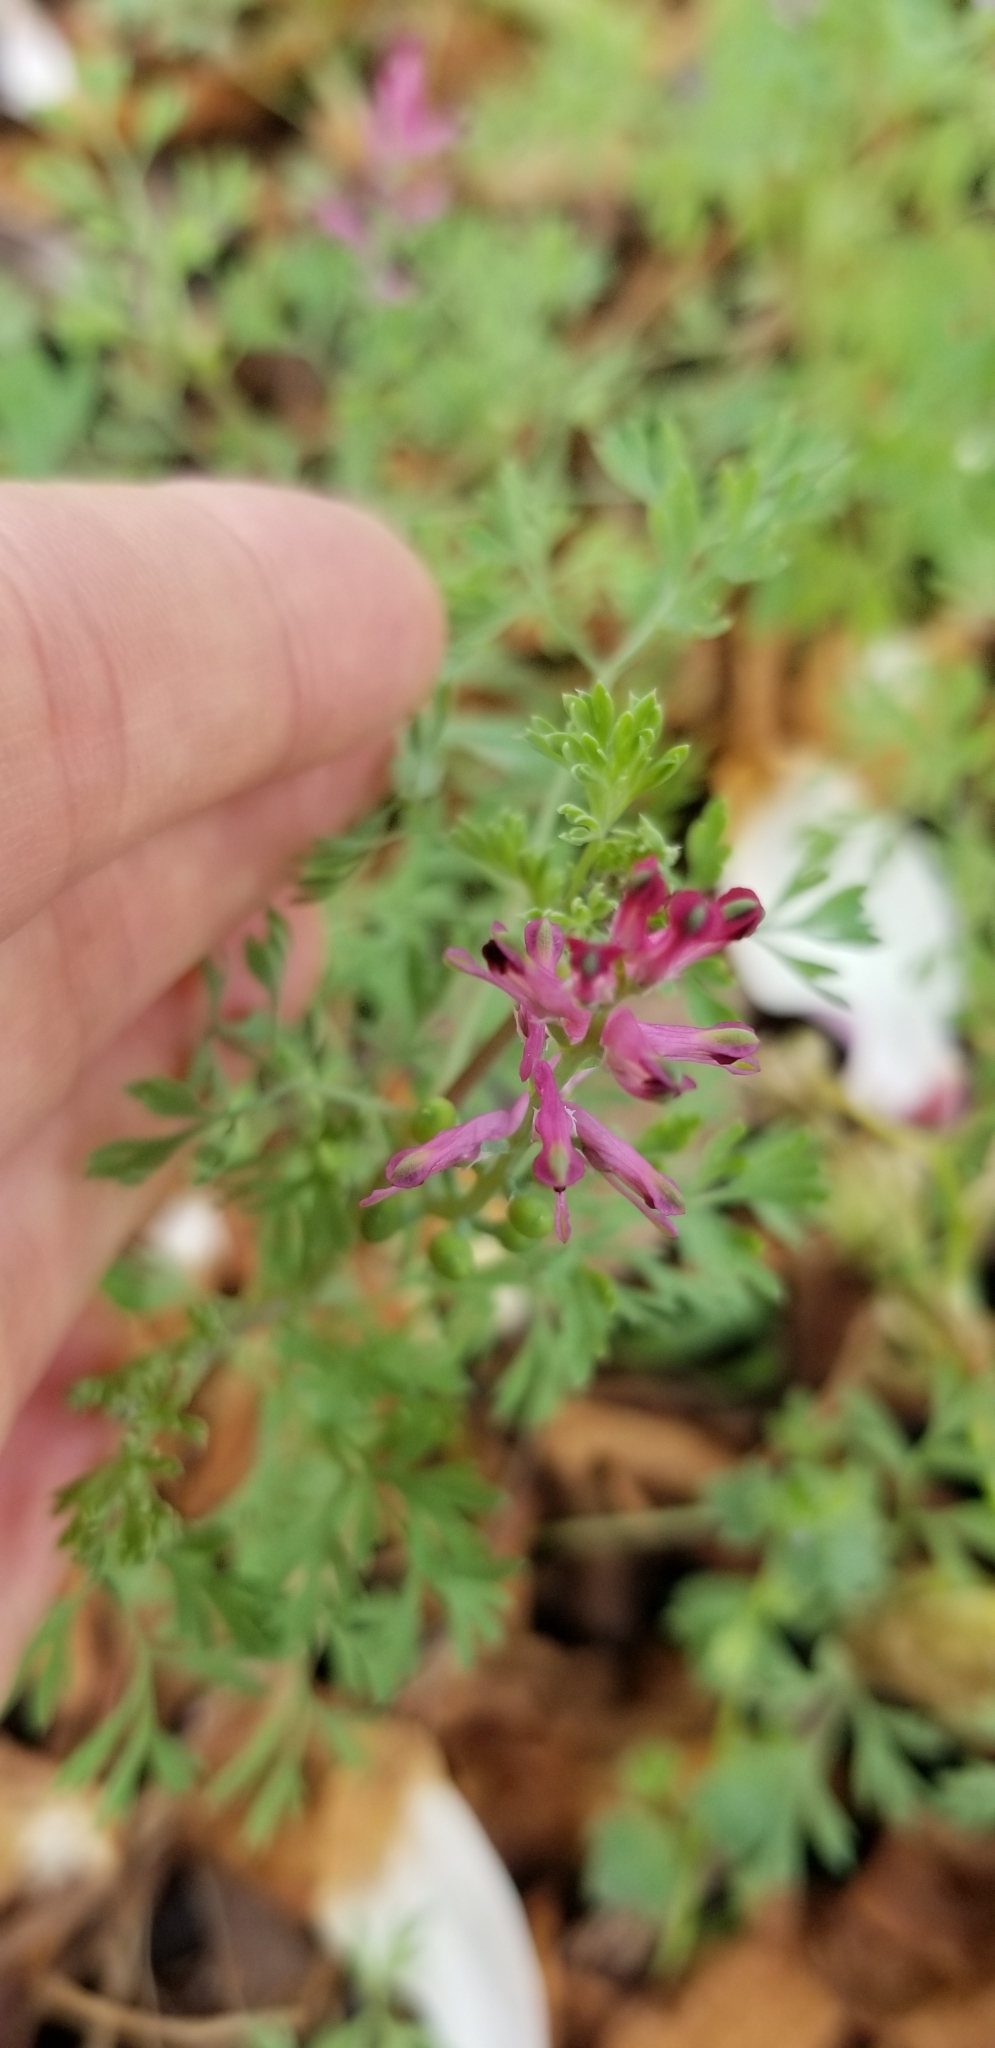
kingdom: Plantae
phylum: Tracheophyta
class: Magnoliopsida
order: Ranunculales
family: Papaveraceae
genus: Fumaria
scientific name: Fumaria officinalis
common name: Common fumitory
